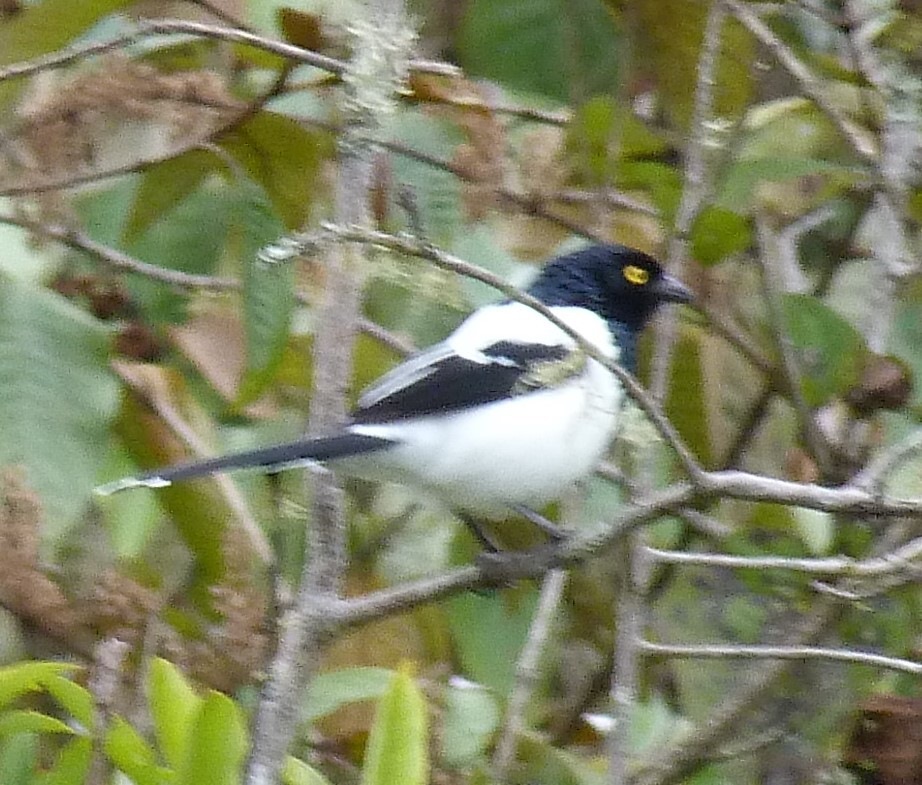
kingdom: Animalia
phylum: Chordata
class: Aves
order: Passeriformes
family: Thraupidae
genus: Cissopis
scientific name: Cissopis leverianus
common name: Magpie tanager
